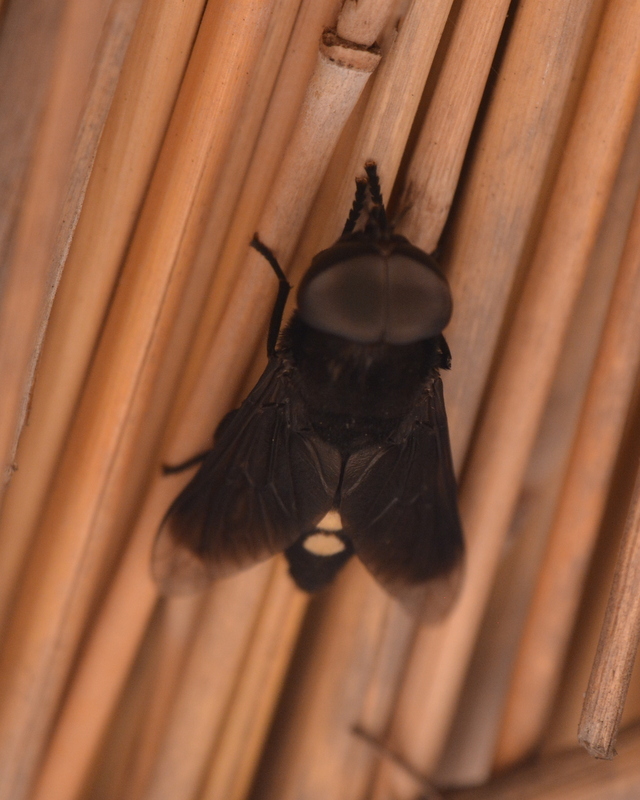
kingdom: Animalia
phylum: Arthropoda
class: Insecta
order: Diptera
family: Tabanidae
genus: Tabanus
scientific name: Tabanus biguttatus
